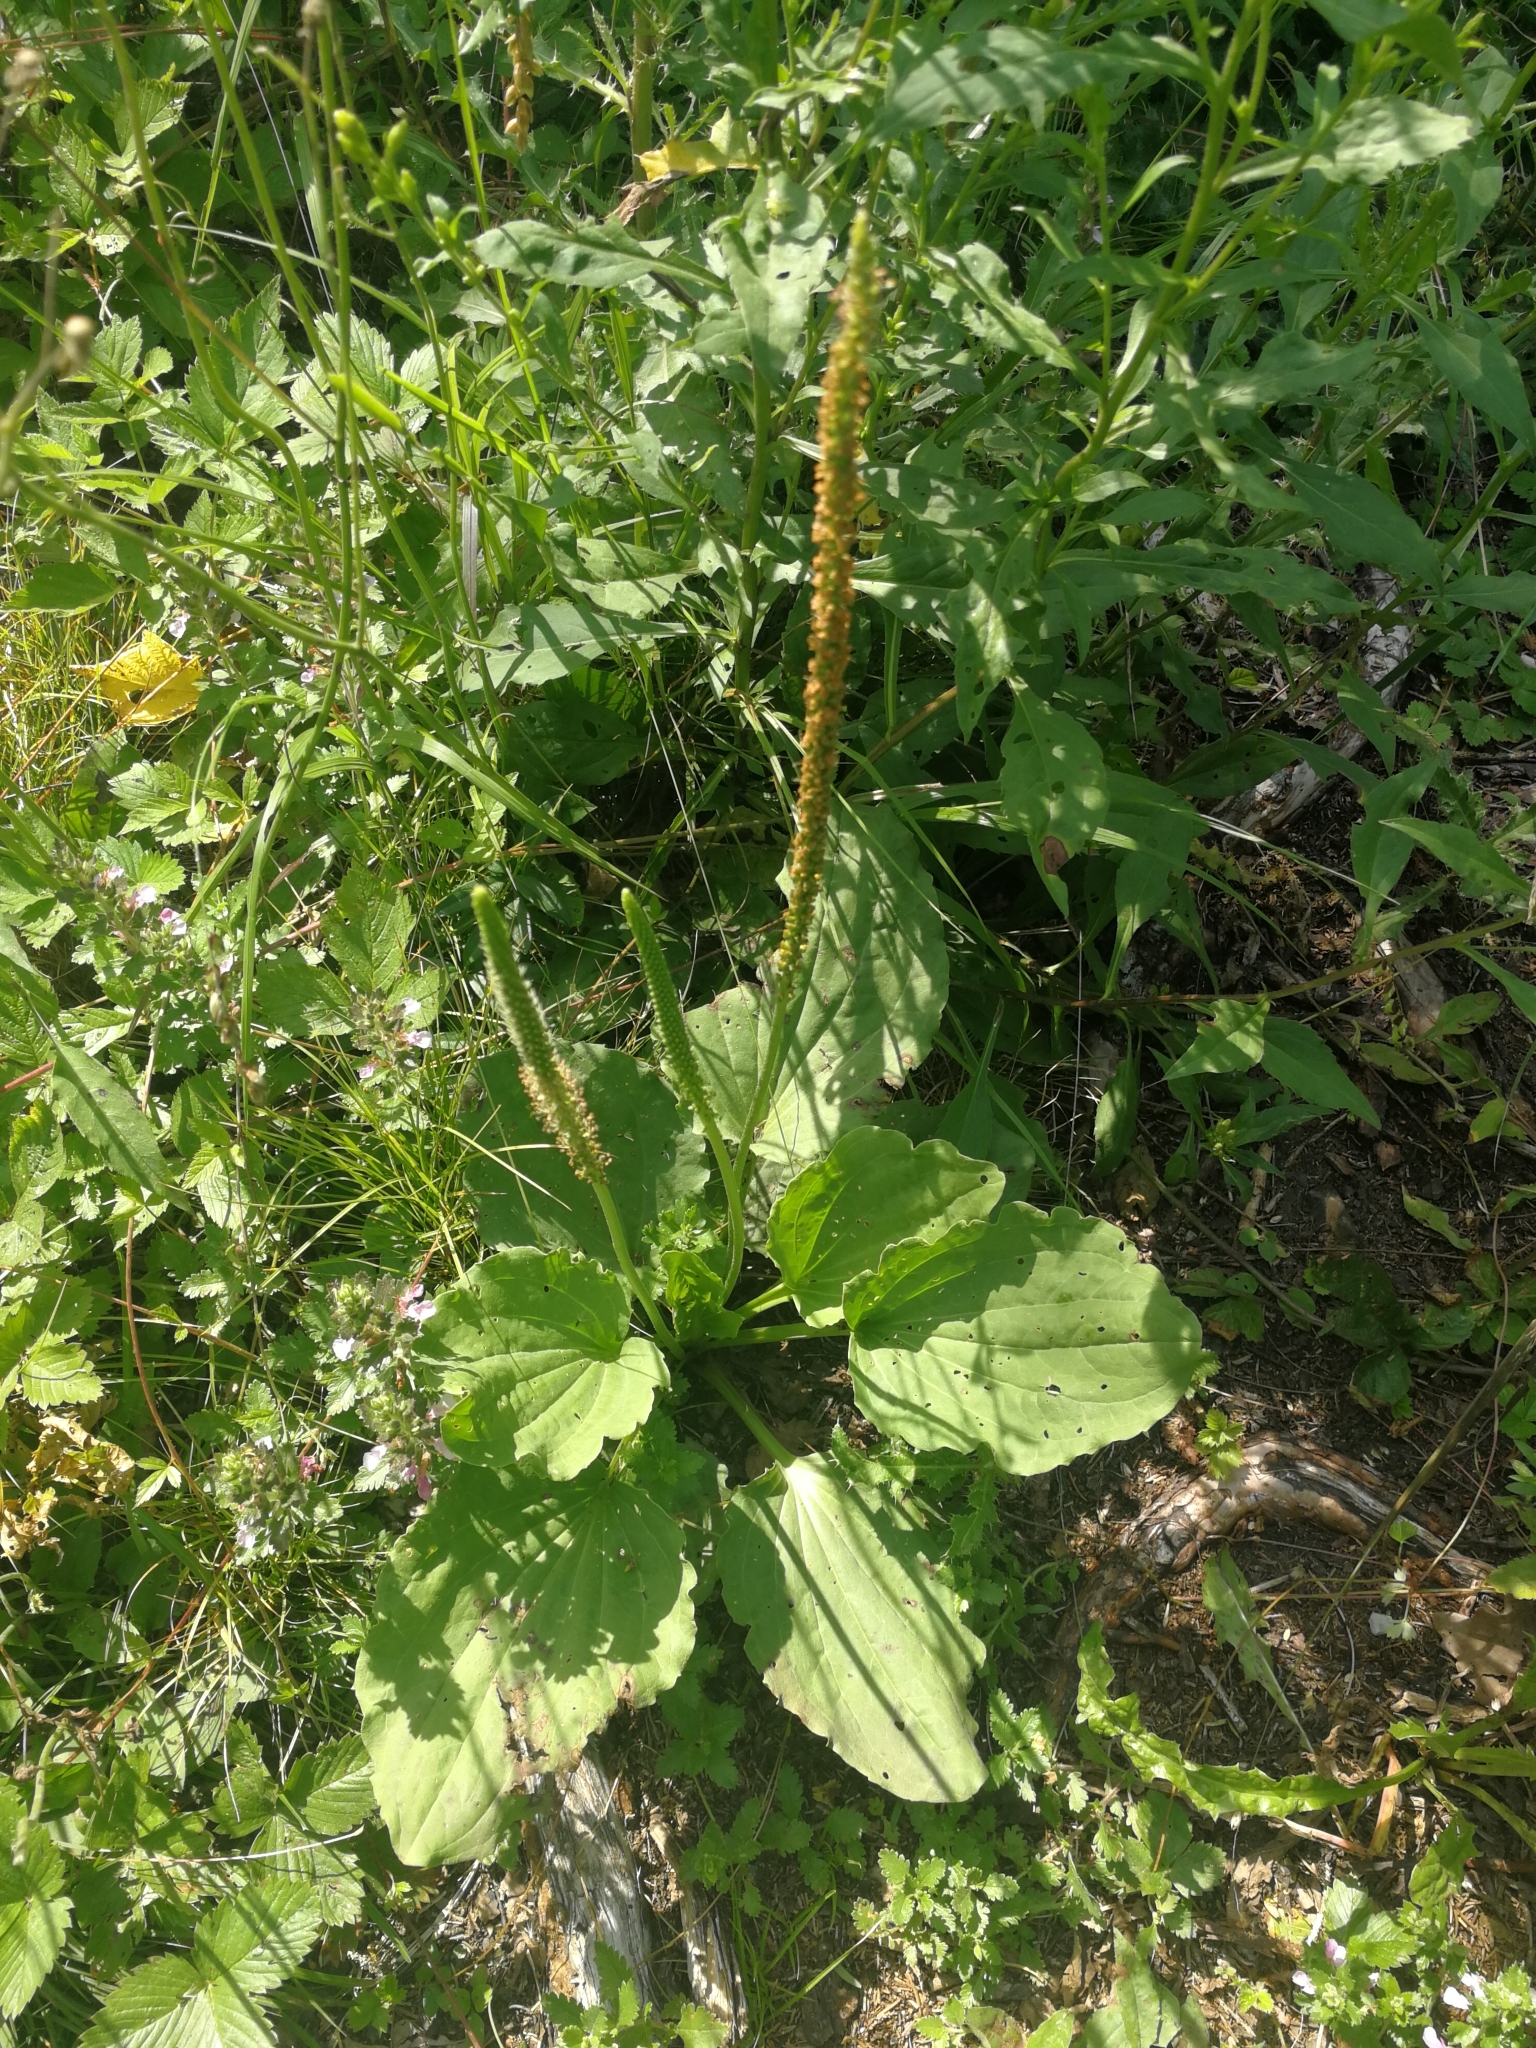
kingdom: Plantae
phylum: Tracheophyta
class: Magnoliopsida
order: Lamiales
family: Plantaginaceae
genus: Plantago
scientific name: Plantago major
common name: Common plantain
